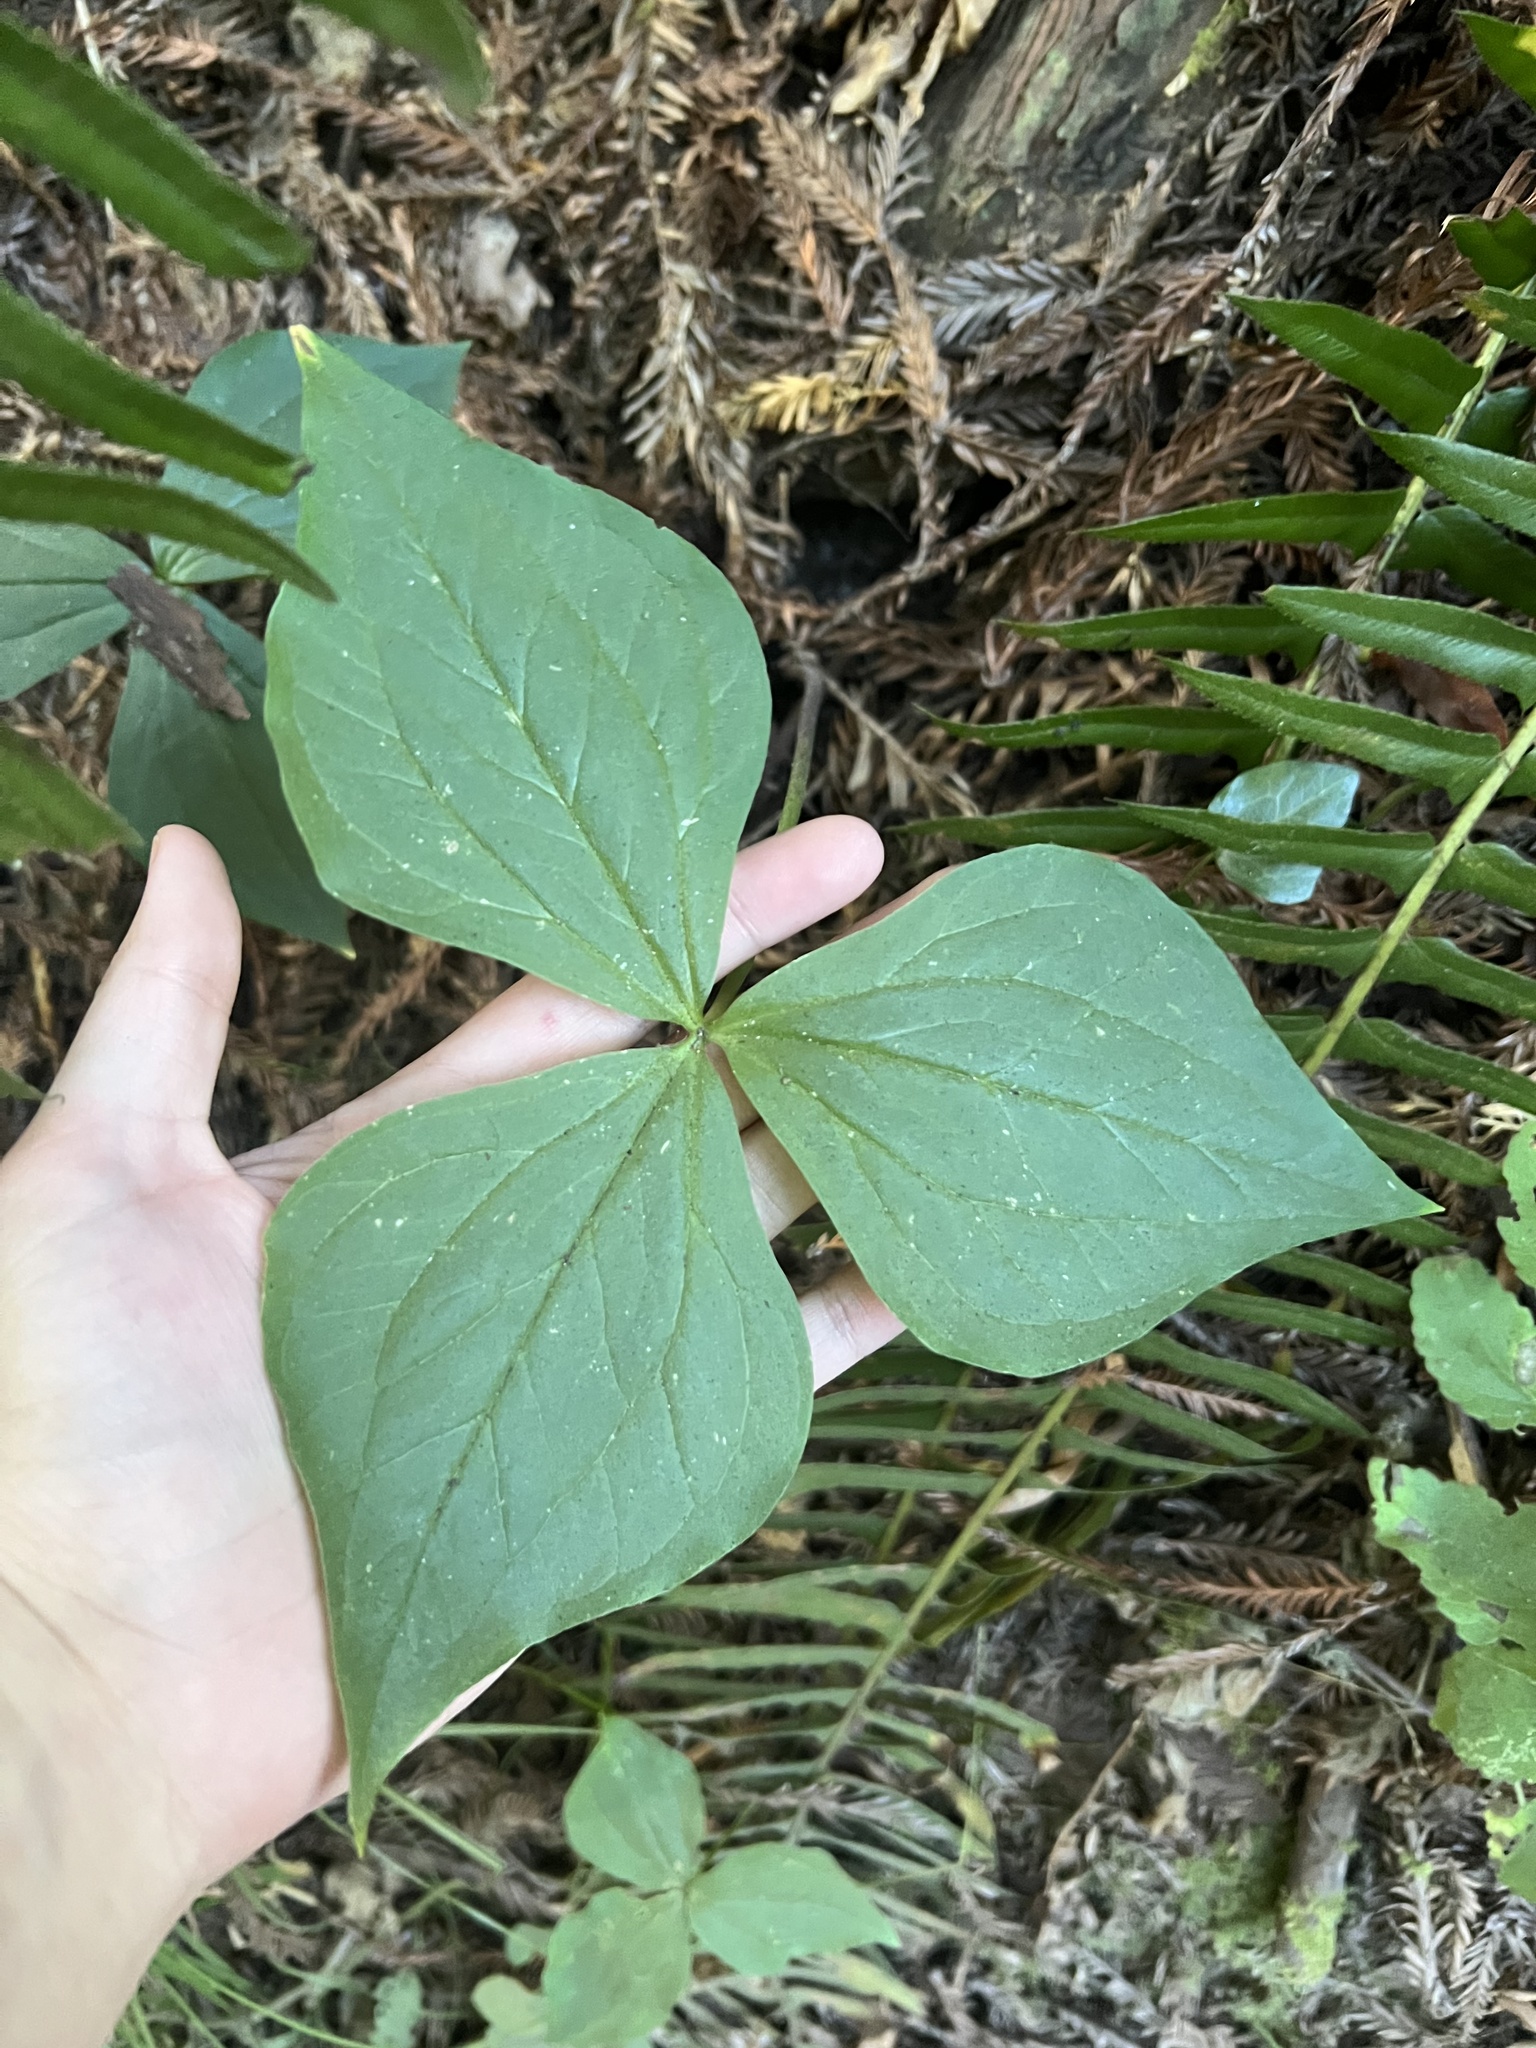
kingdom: Plantae
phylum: Tracheophyta
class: Liliopsida
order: Liliales
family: Melanthiaceae
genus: Trillium
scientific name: Trillium ovatum
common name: Pacific trillium
